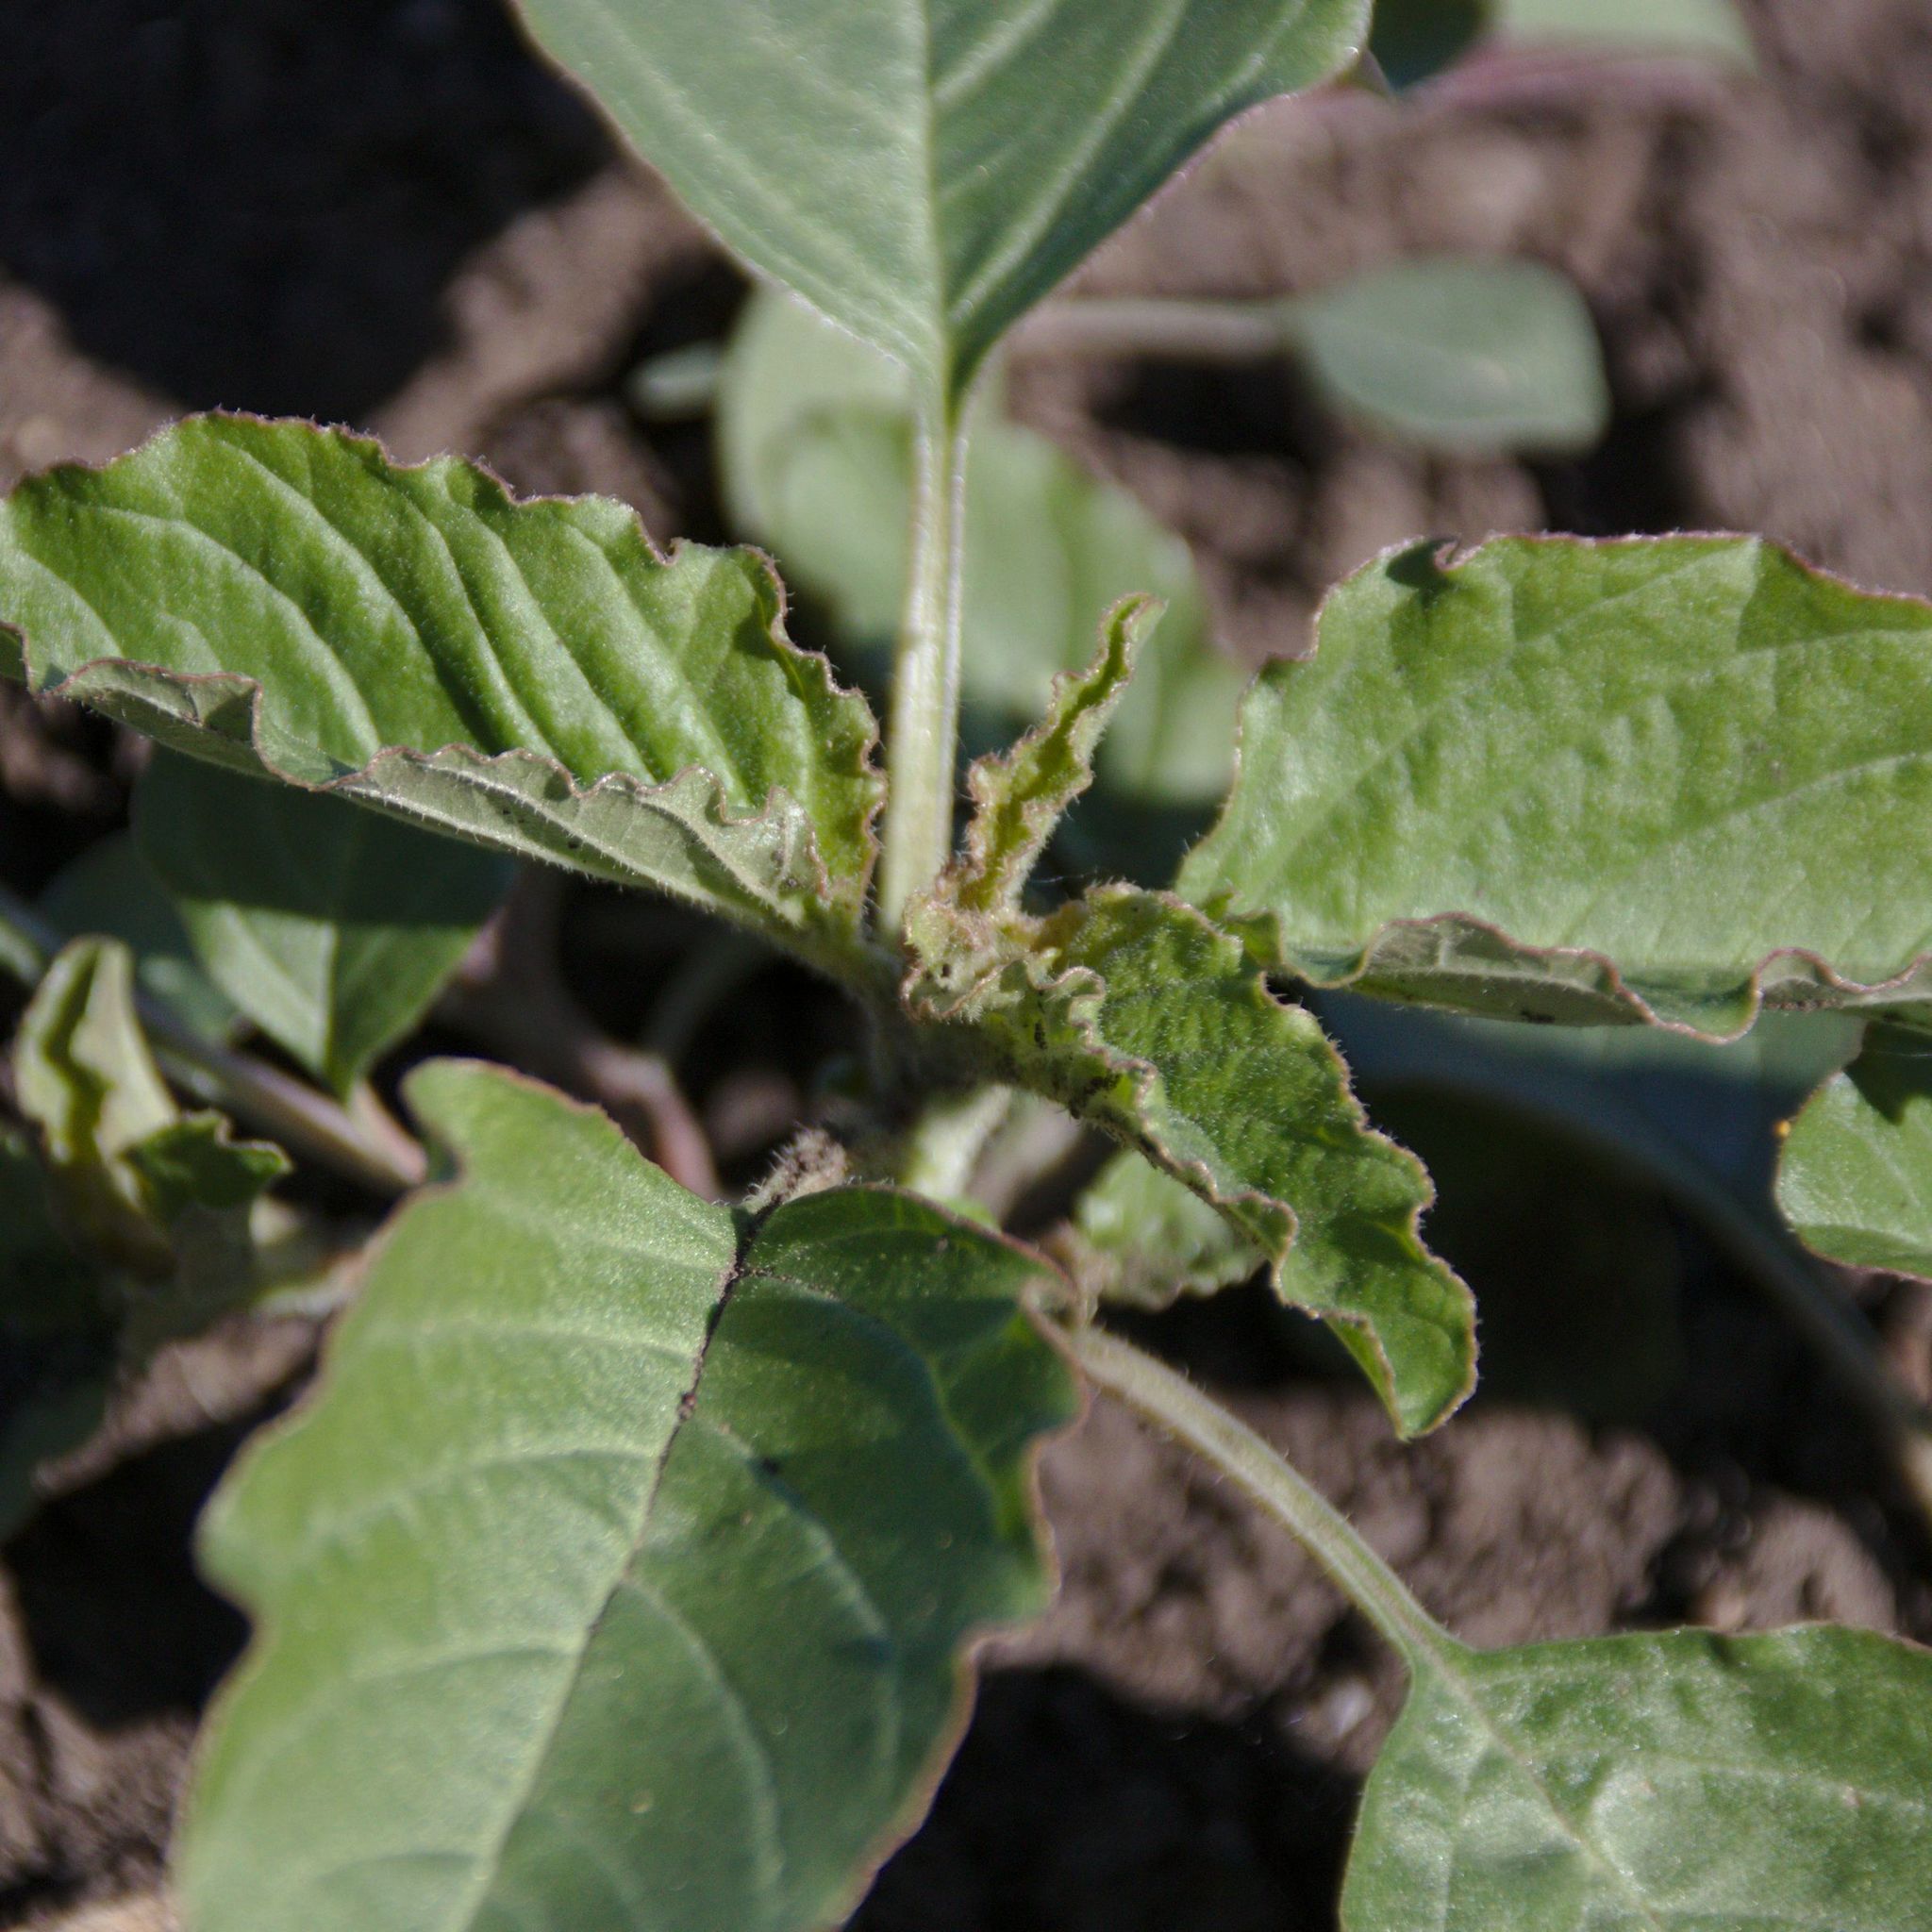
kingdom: Plantae
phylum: Tracheophyta
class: Magnoliopsida
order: Caryophyllales
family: Amaranthaceae
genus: Amaranthus
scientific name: Amaranthus retroflexus
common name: Redroot amaranth
